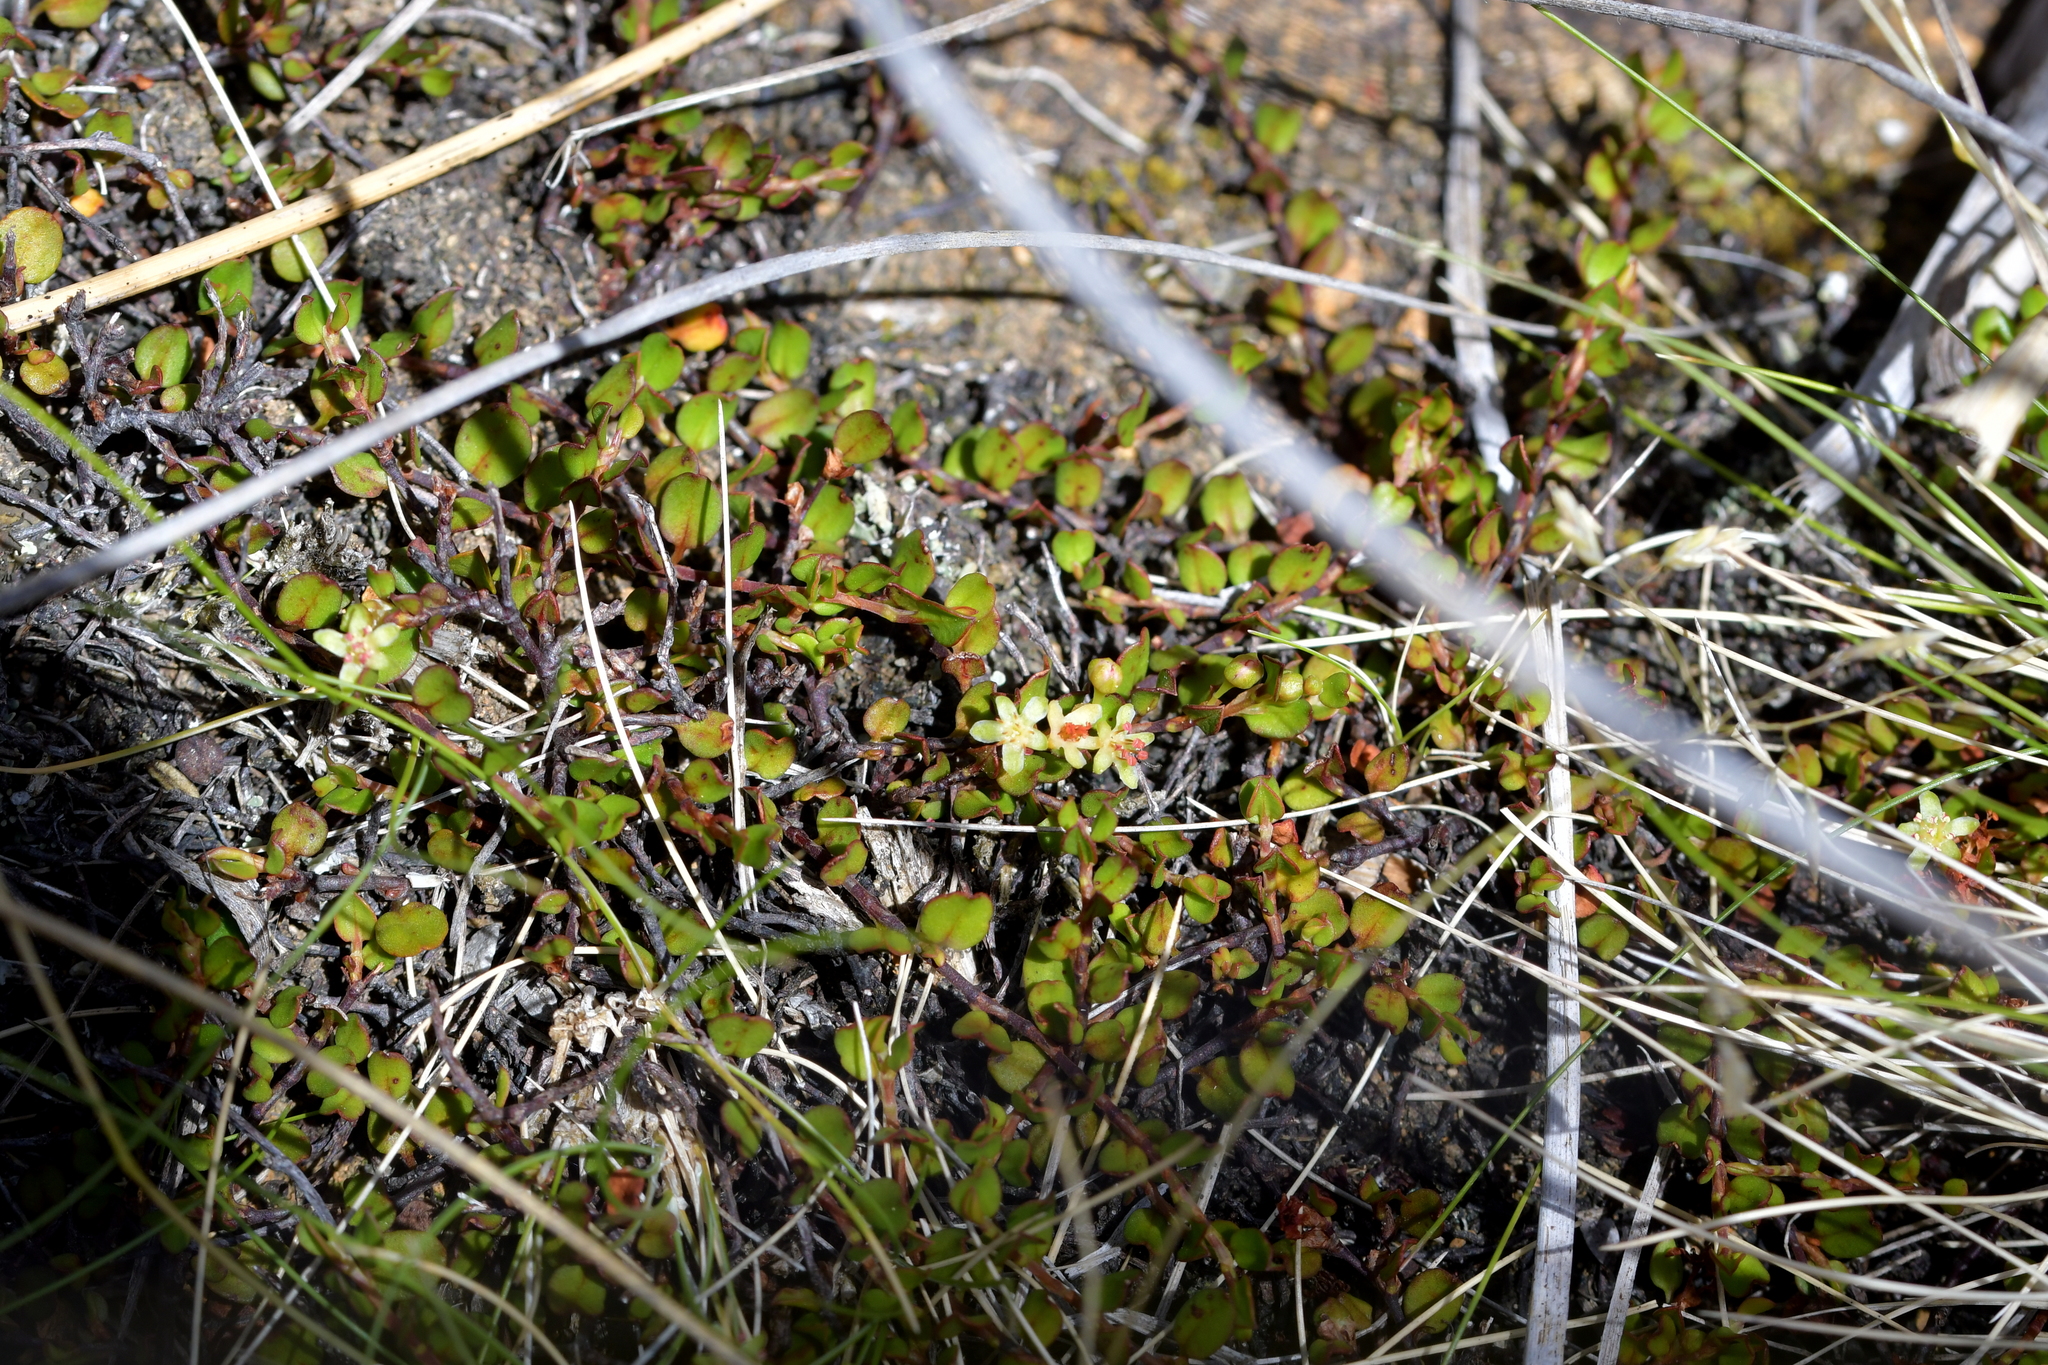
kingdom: Plantae
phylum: Tracheophyta
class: Magnoliopsida
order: Caryophyllales
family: Polygonaceae
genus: Muehlenbeckia
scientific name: Muehlenbeckia axillaris
